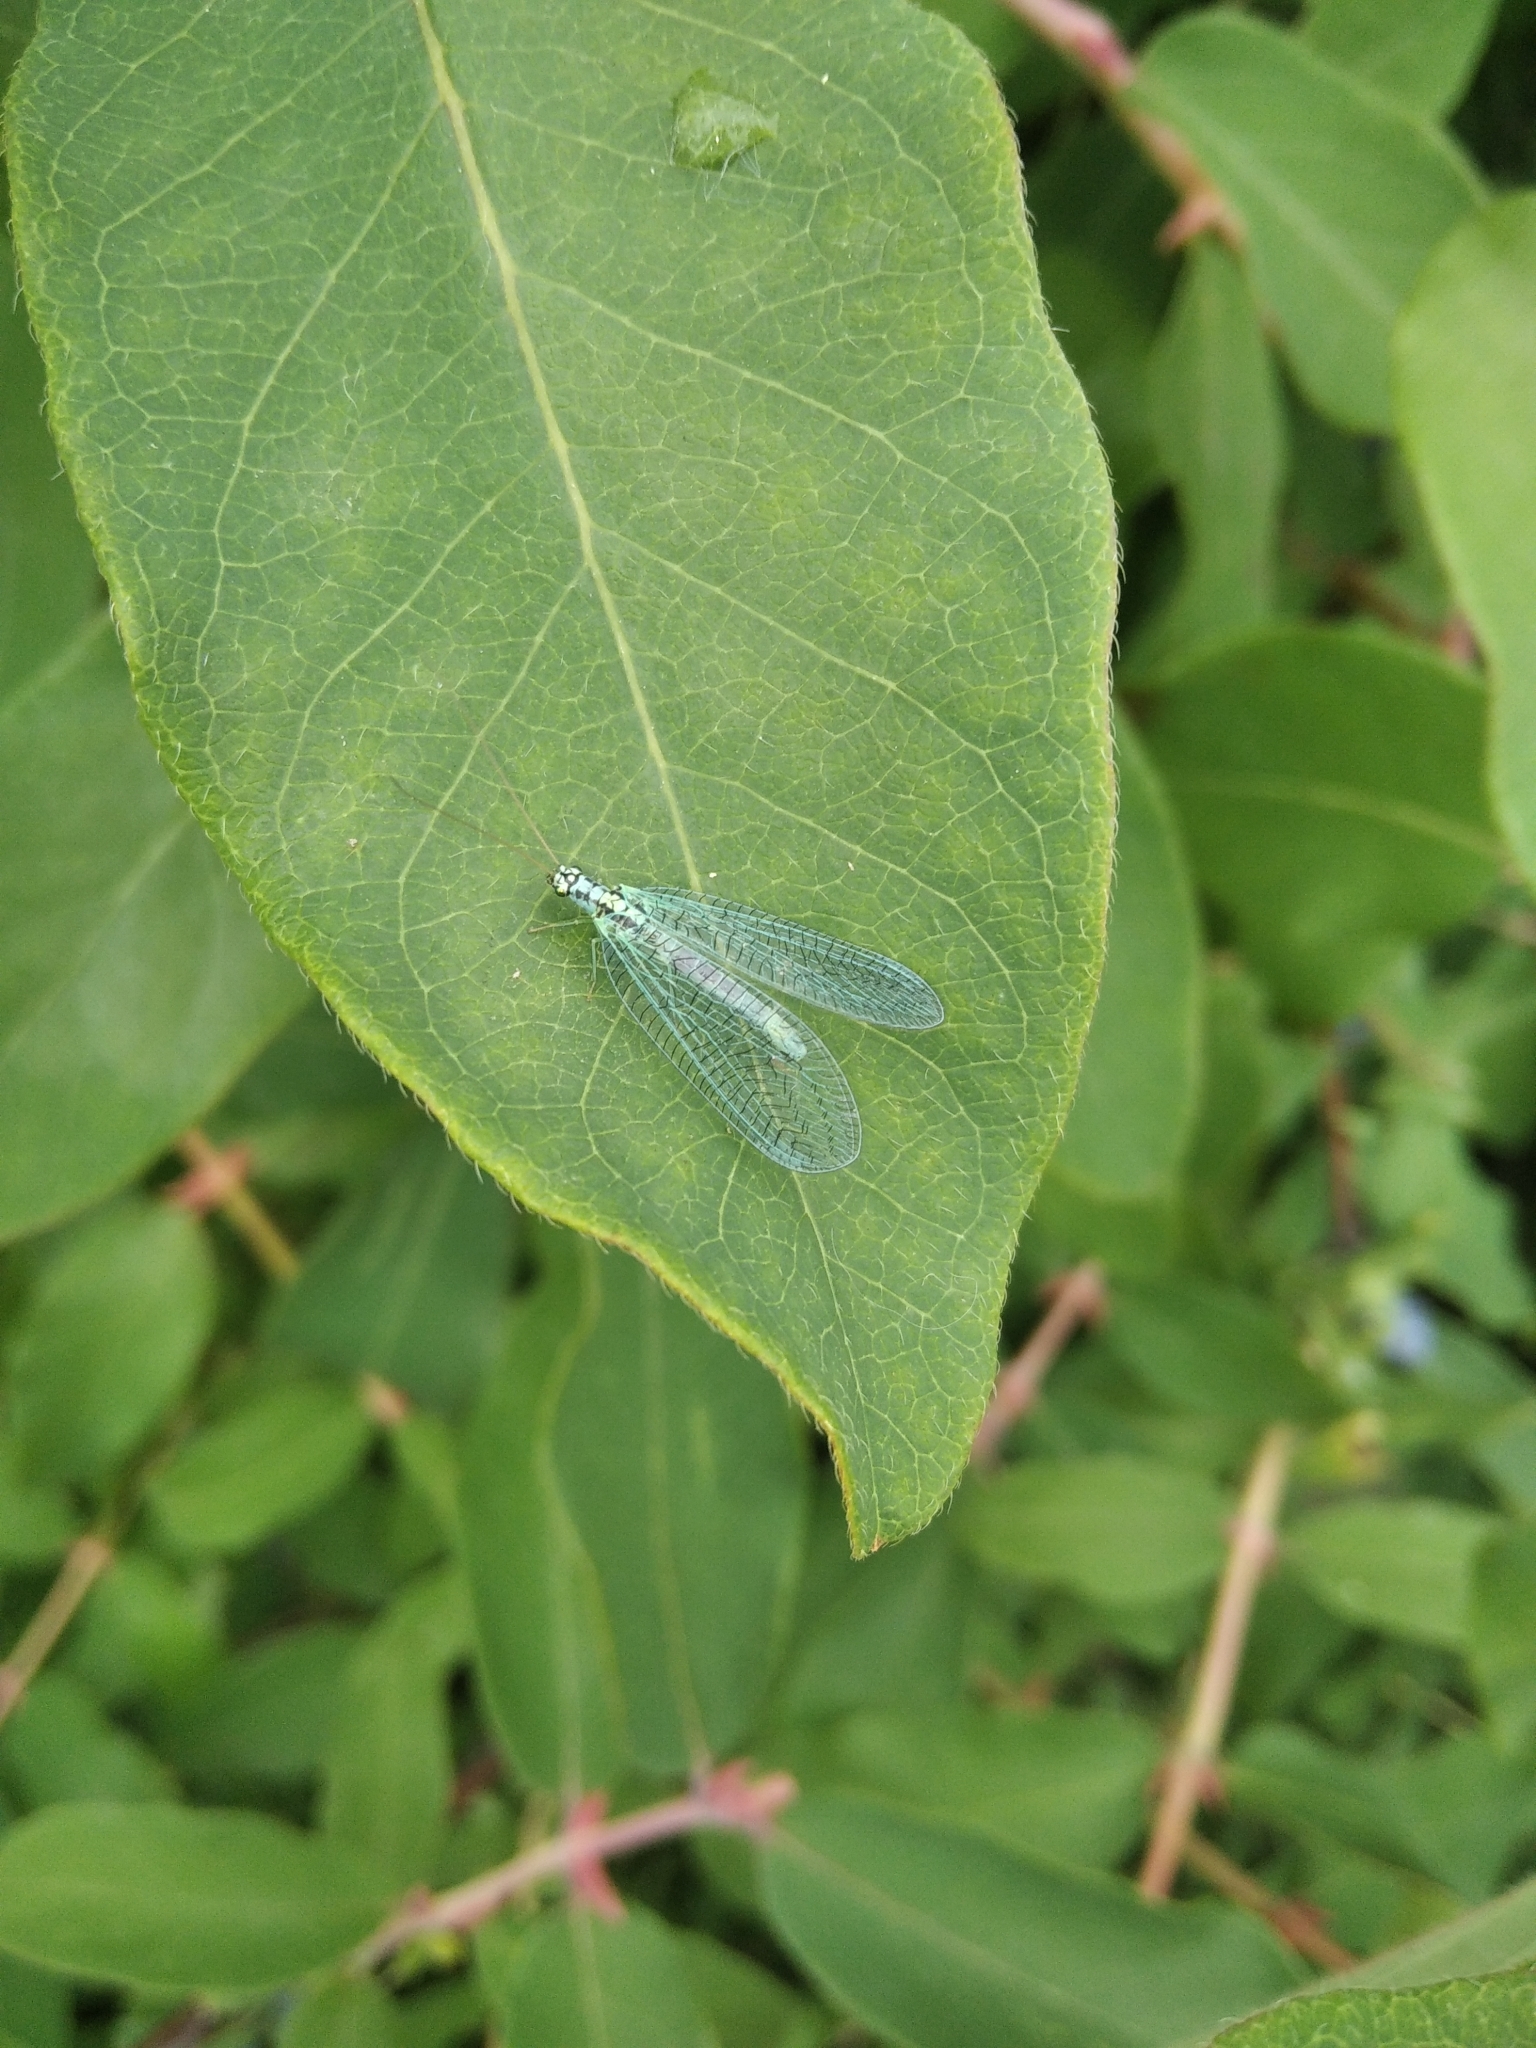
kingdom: Animalia
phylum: Arthropoda
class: Insecta
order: Neuroptera
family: Chrysopidae
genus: Chrysopa
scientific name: Chrysopa perla
